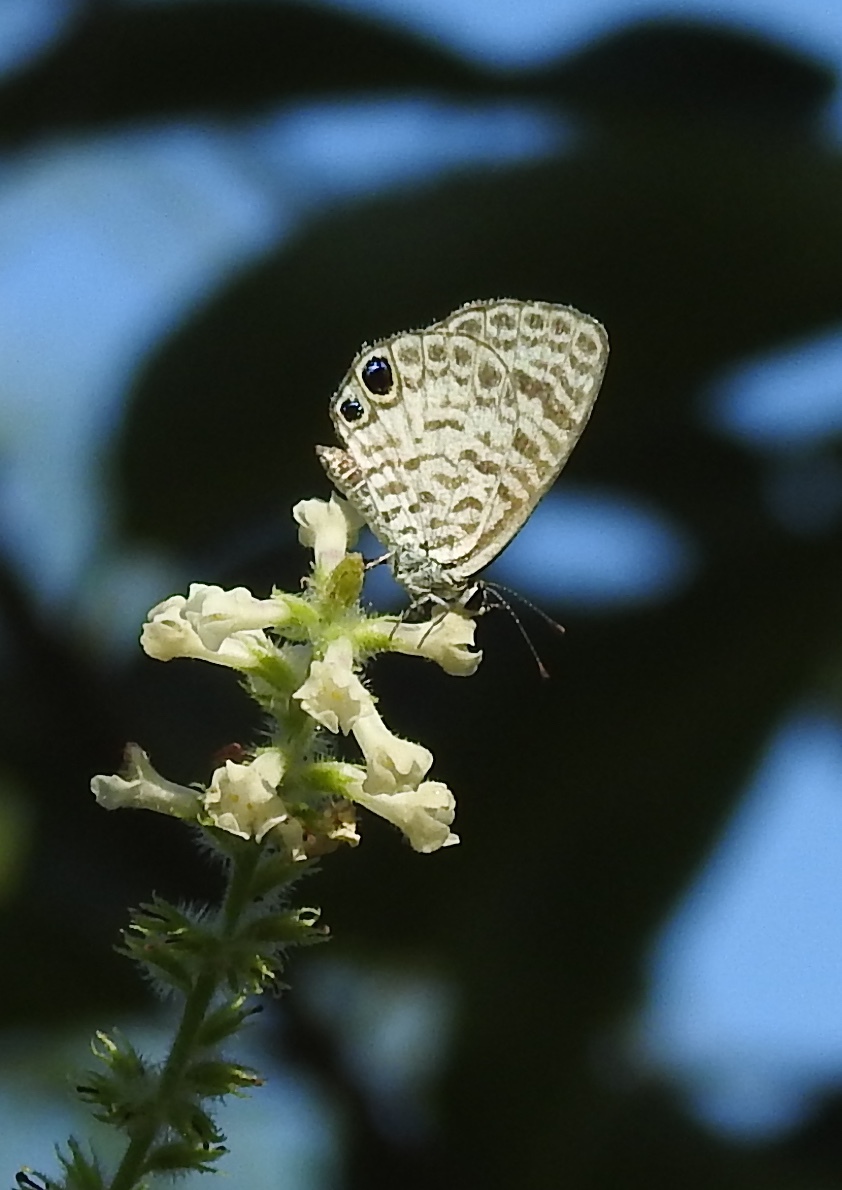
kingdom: Animalia
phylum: Arthropoda
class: Insecta
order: Lepidoptera
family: Lycaenidae
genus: Leptotes
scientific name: Leptotes cassius
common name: Cassius blue
